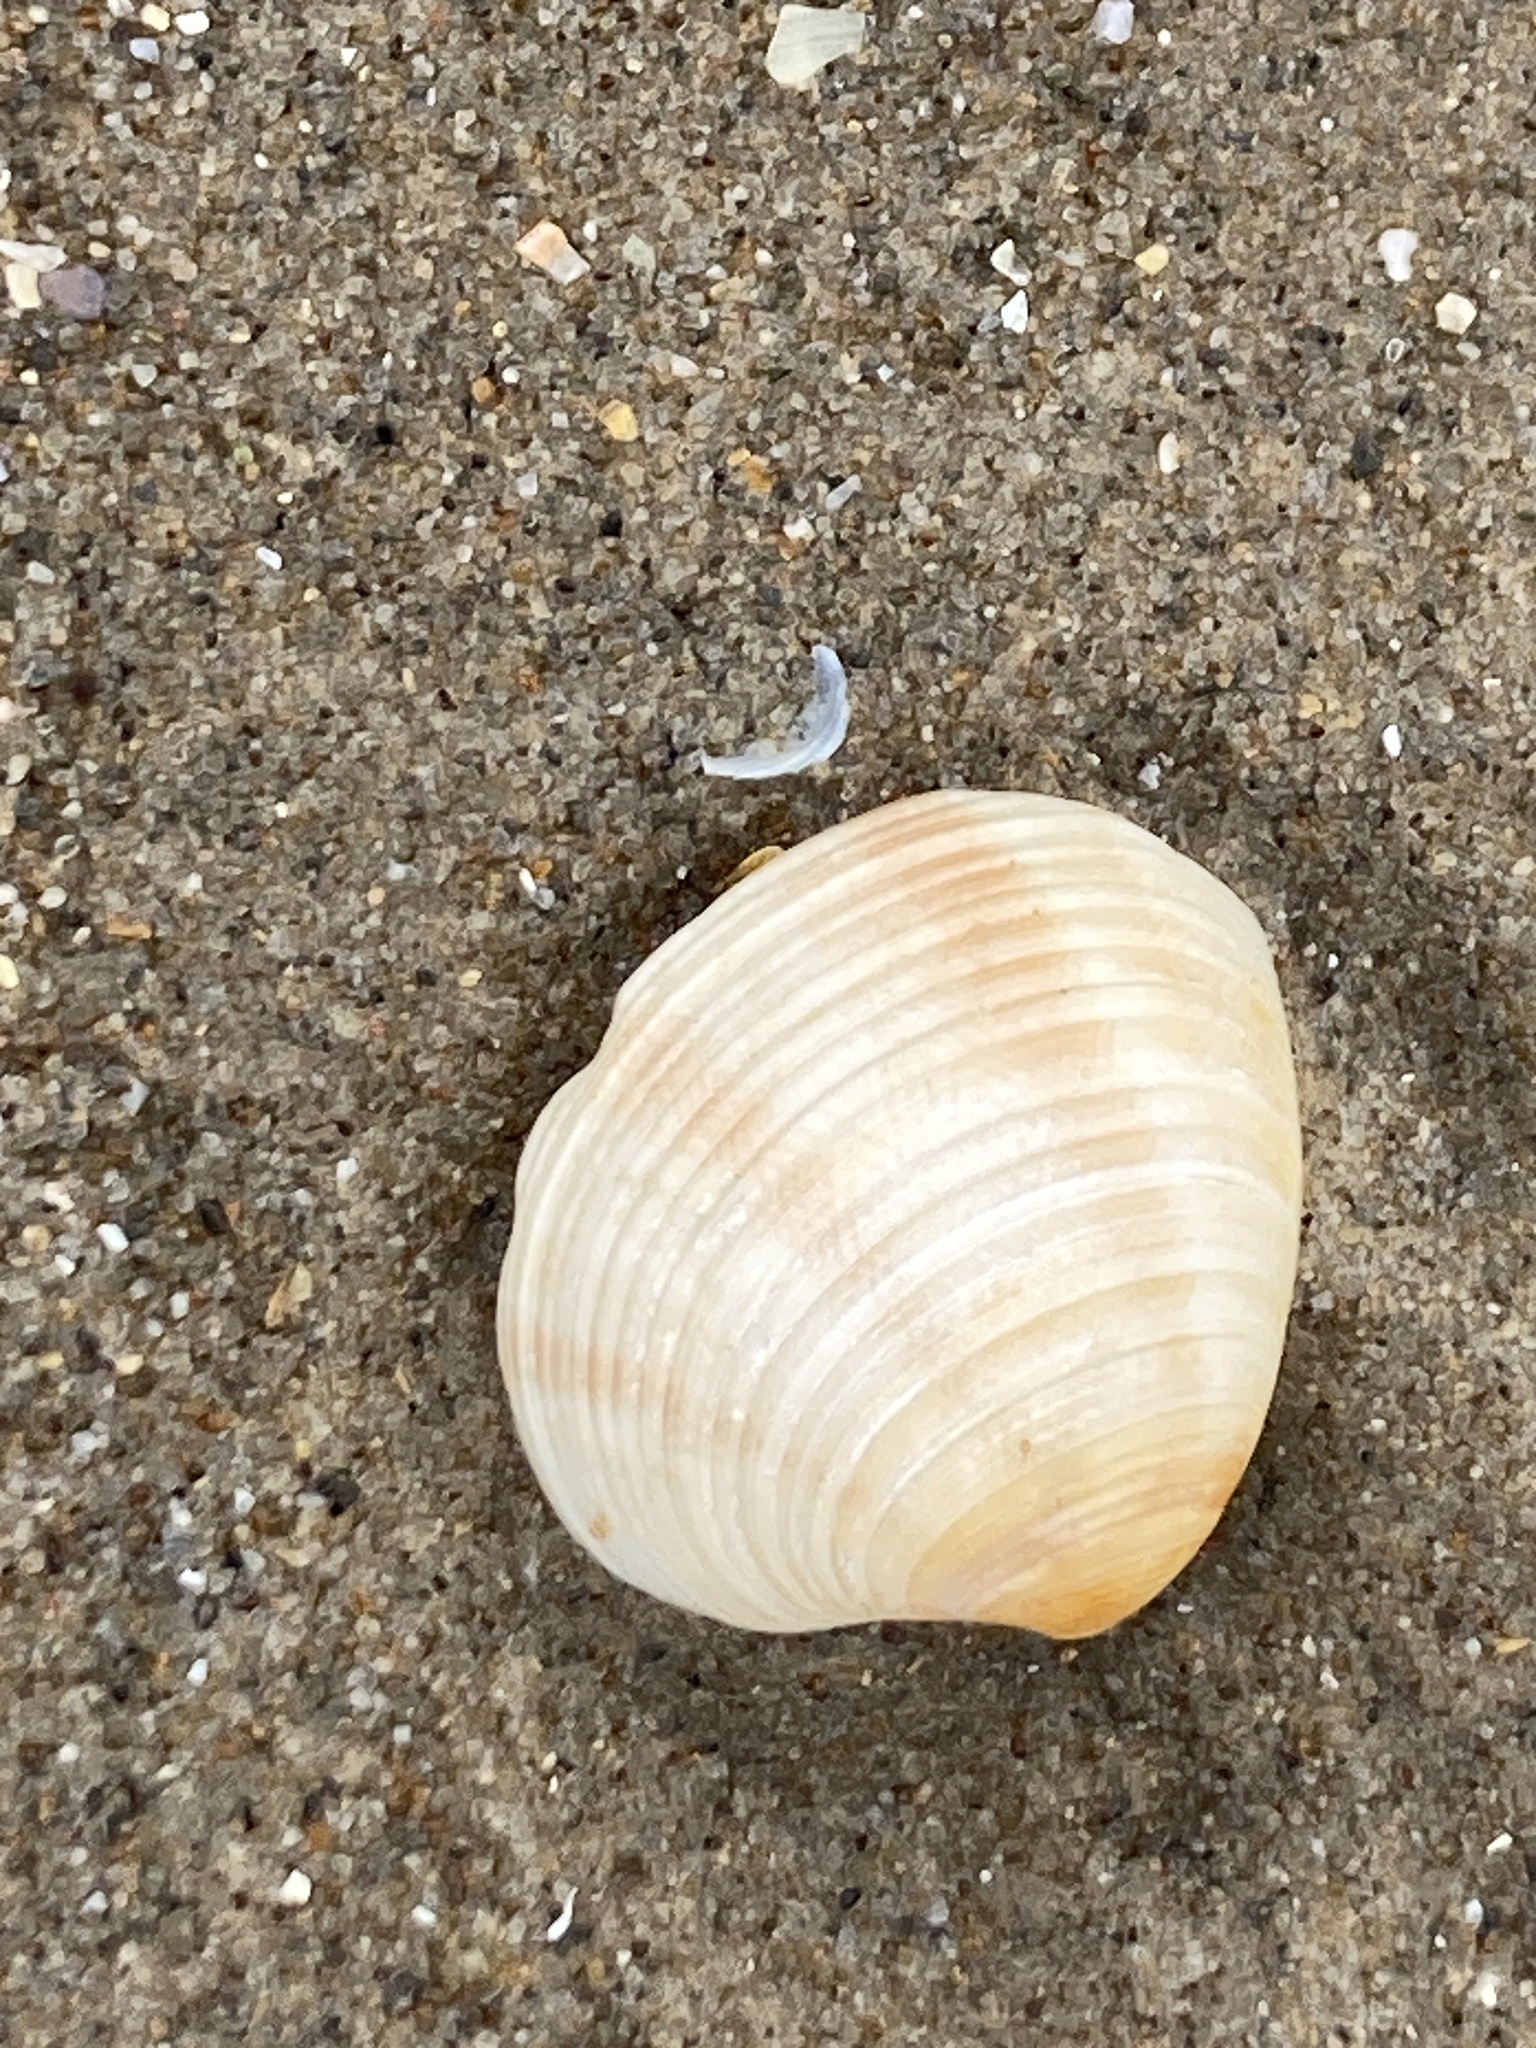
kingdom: Animalia
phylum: Mollusca
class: Bivalvia
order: Venerida
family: Veneridae
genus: Chamelea
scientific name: Chamelea striatula
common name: Striped venus
